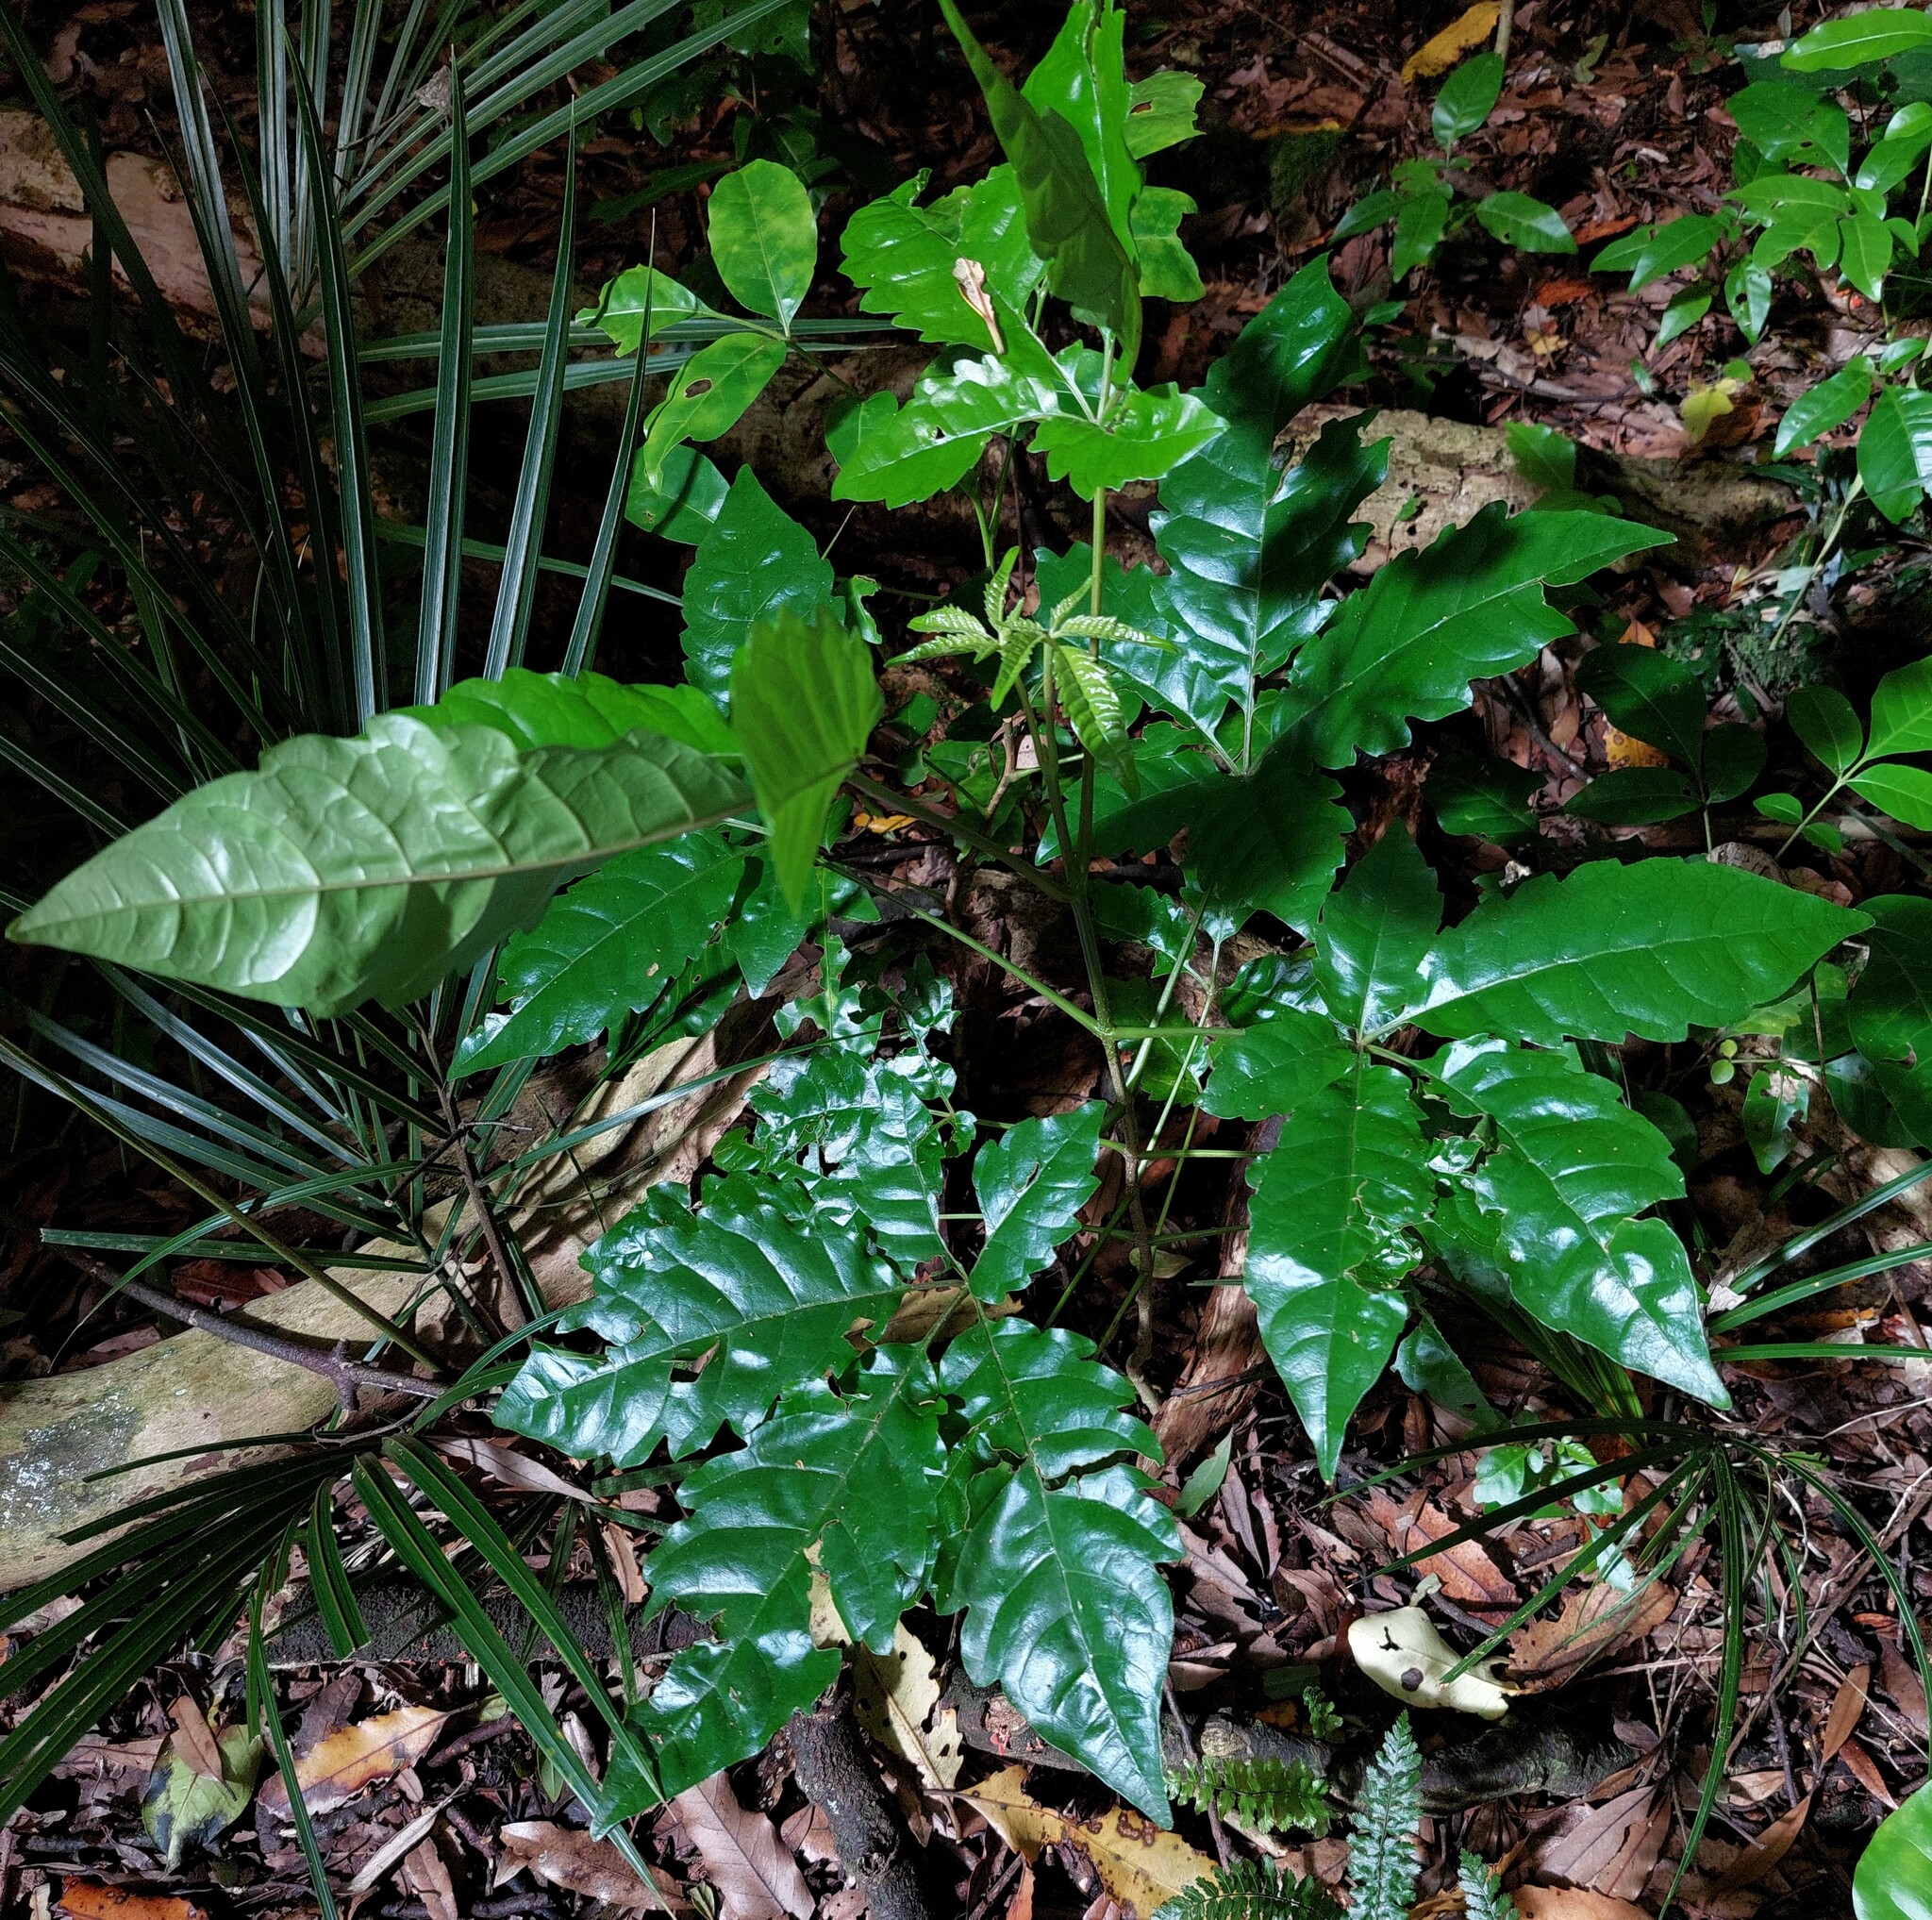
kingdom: Plantae
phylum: Tracheophyta
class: Magnoliopsida
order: Lamiales
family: Lamiaceae
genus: Vitex
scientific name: Vitex lucens
